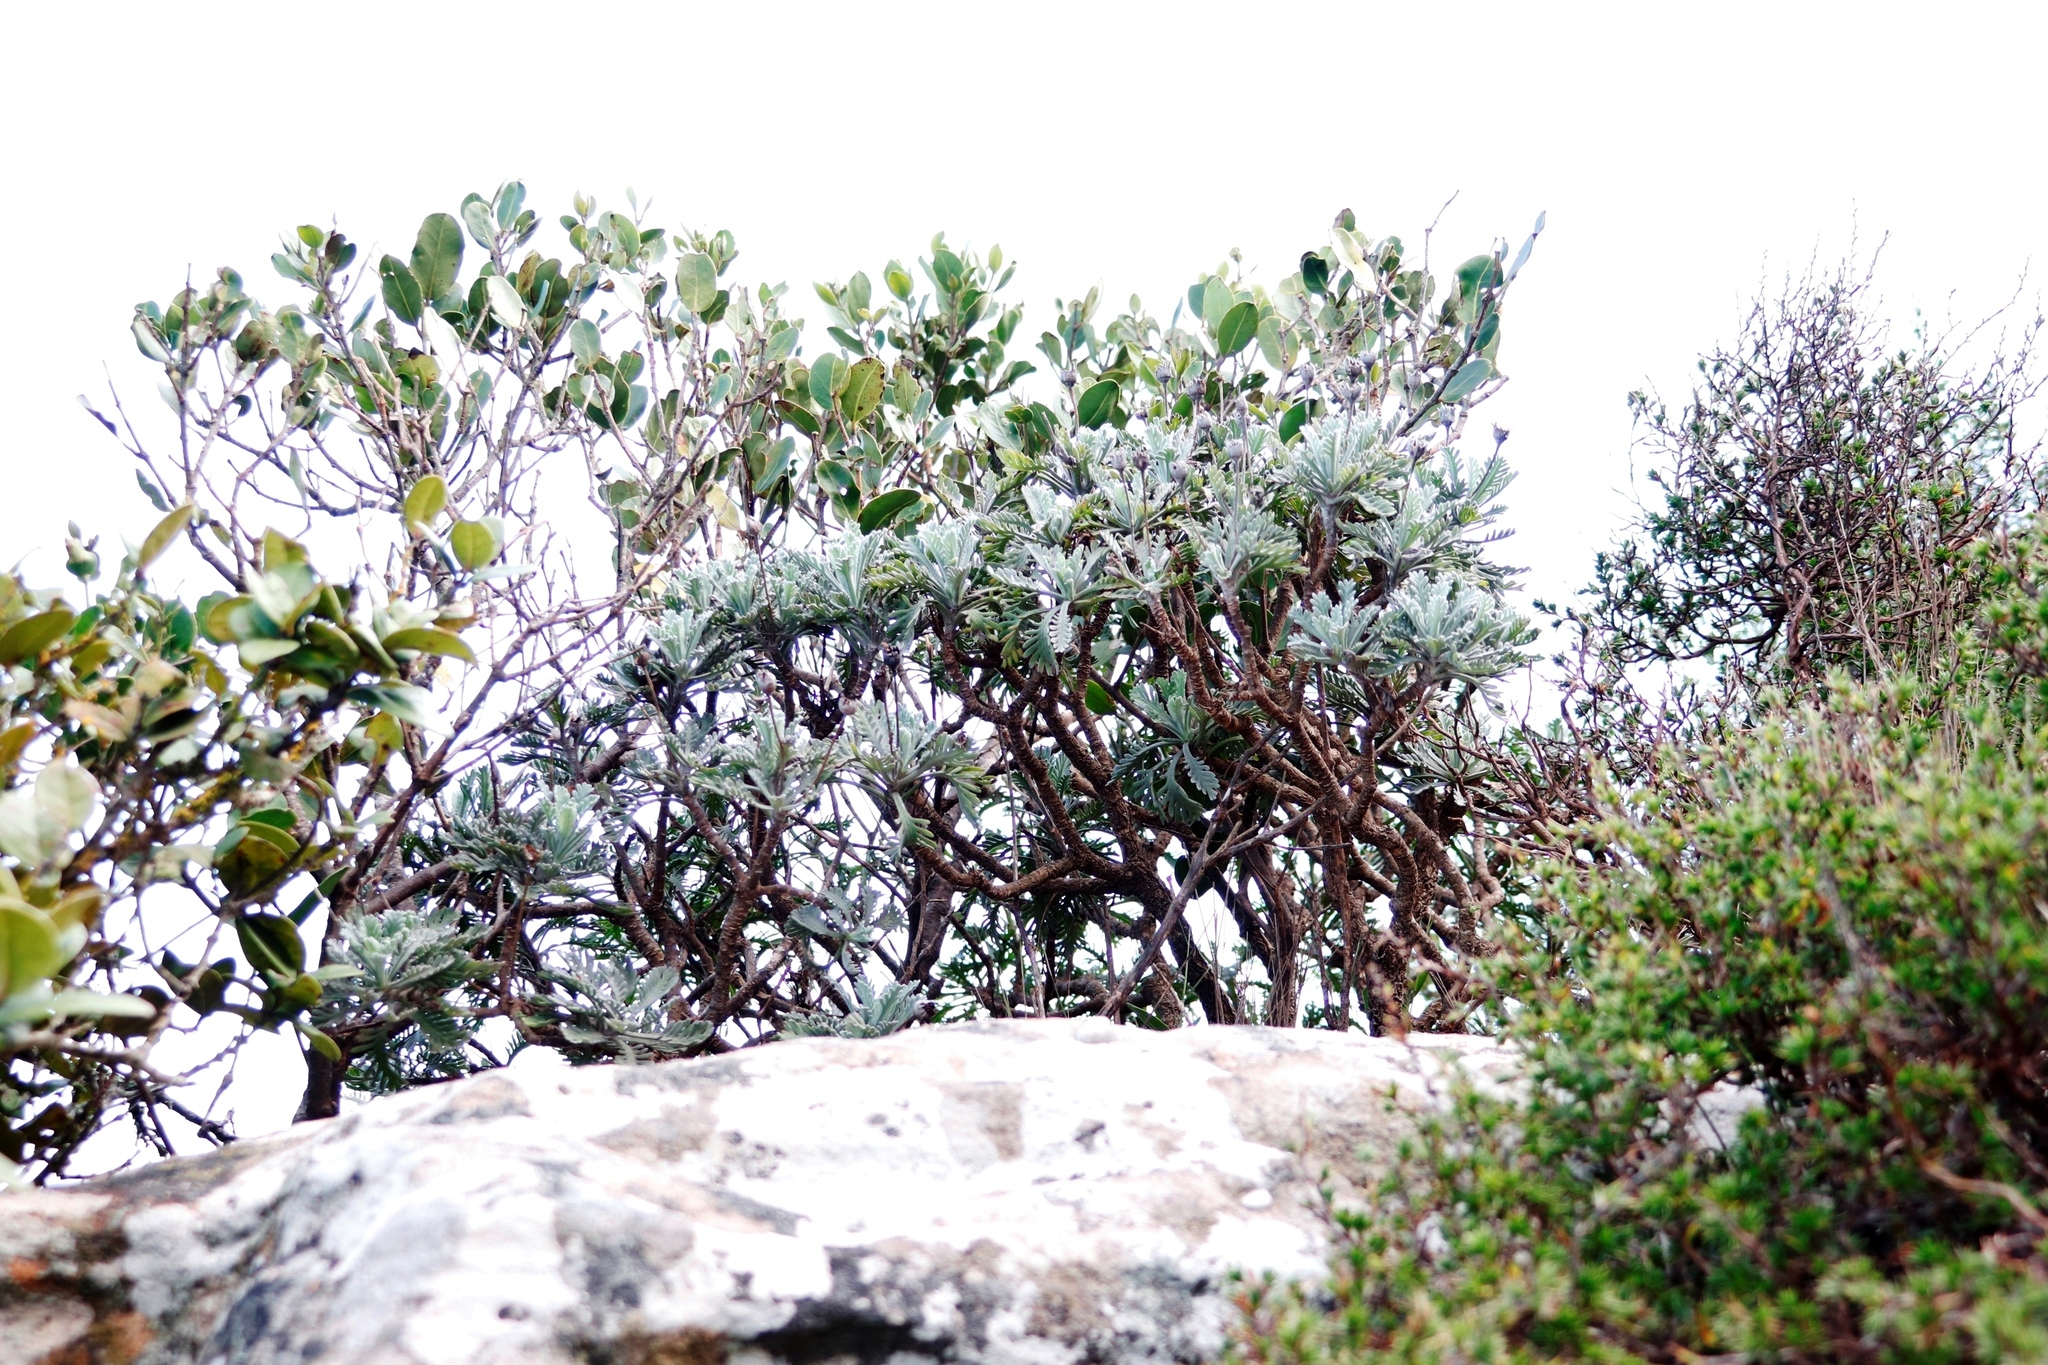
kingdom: Plantae
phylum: Tracheophyta
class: Magnoliopsida
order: Asterales
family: Asteraceae
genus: Euryops
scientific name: Euryops pectinatus
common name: Gray-leaf euryops
